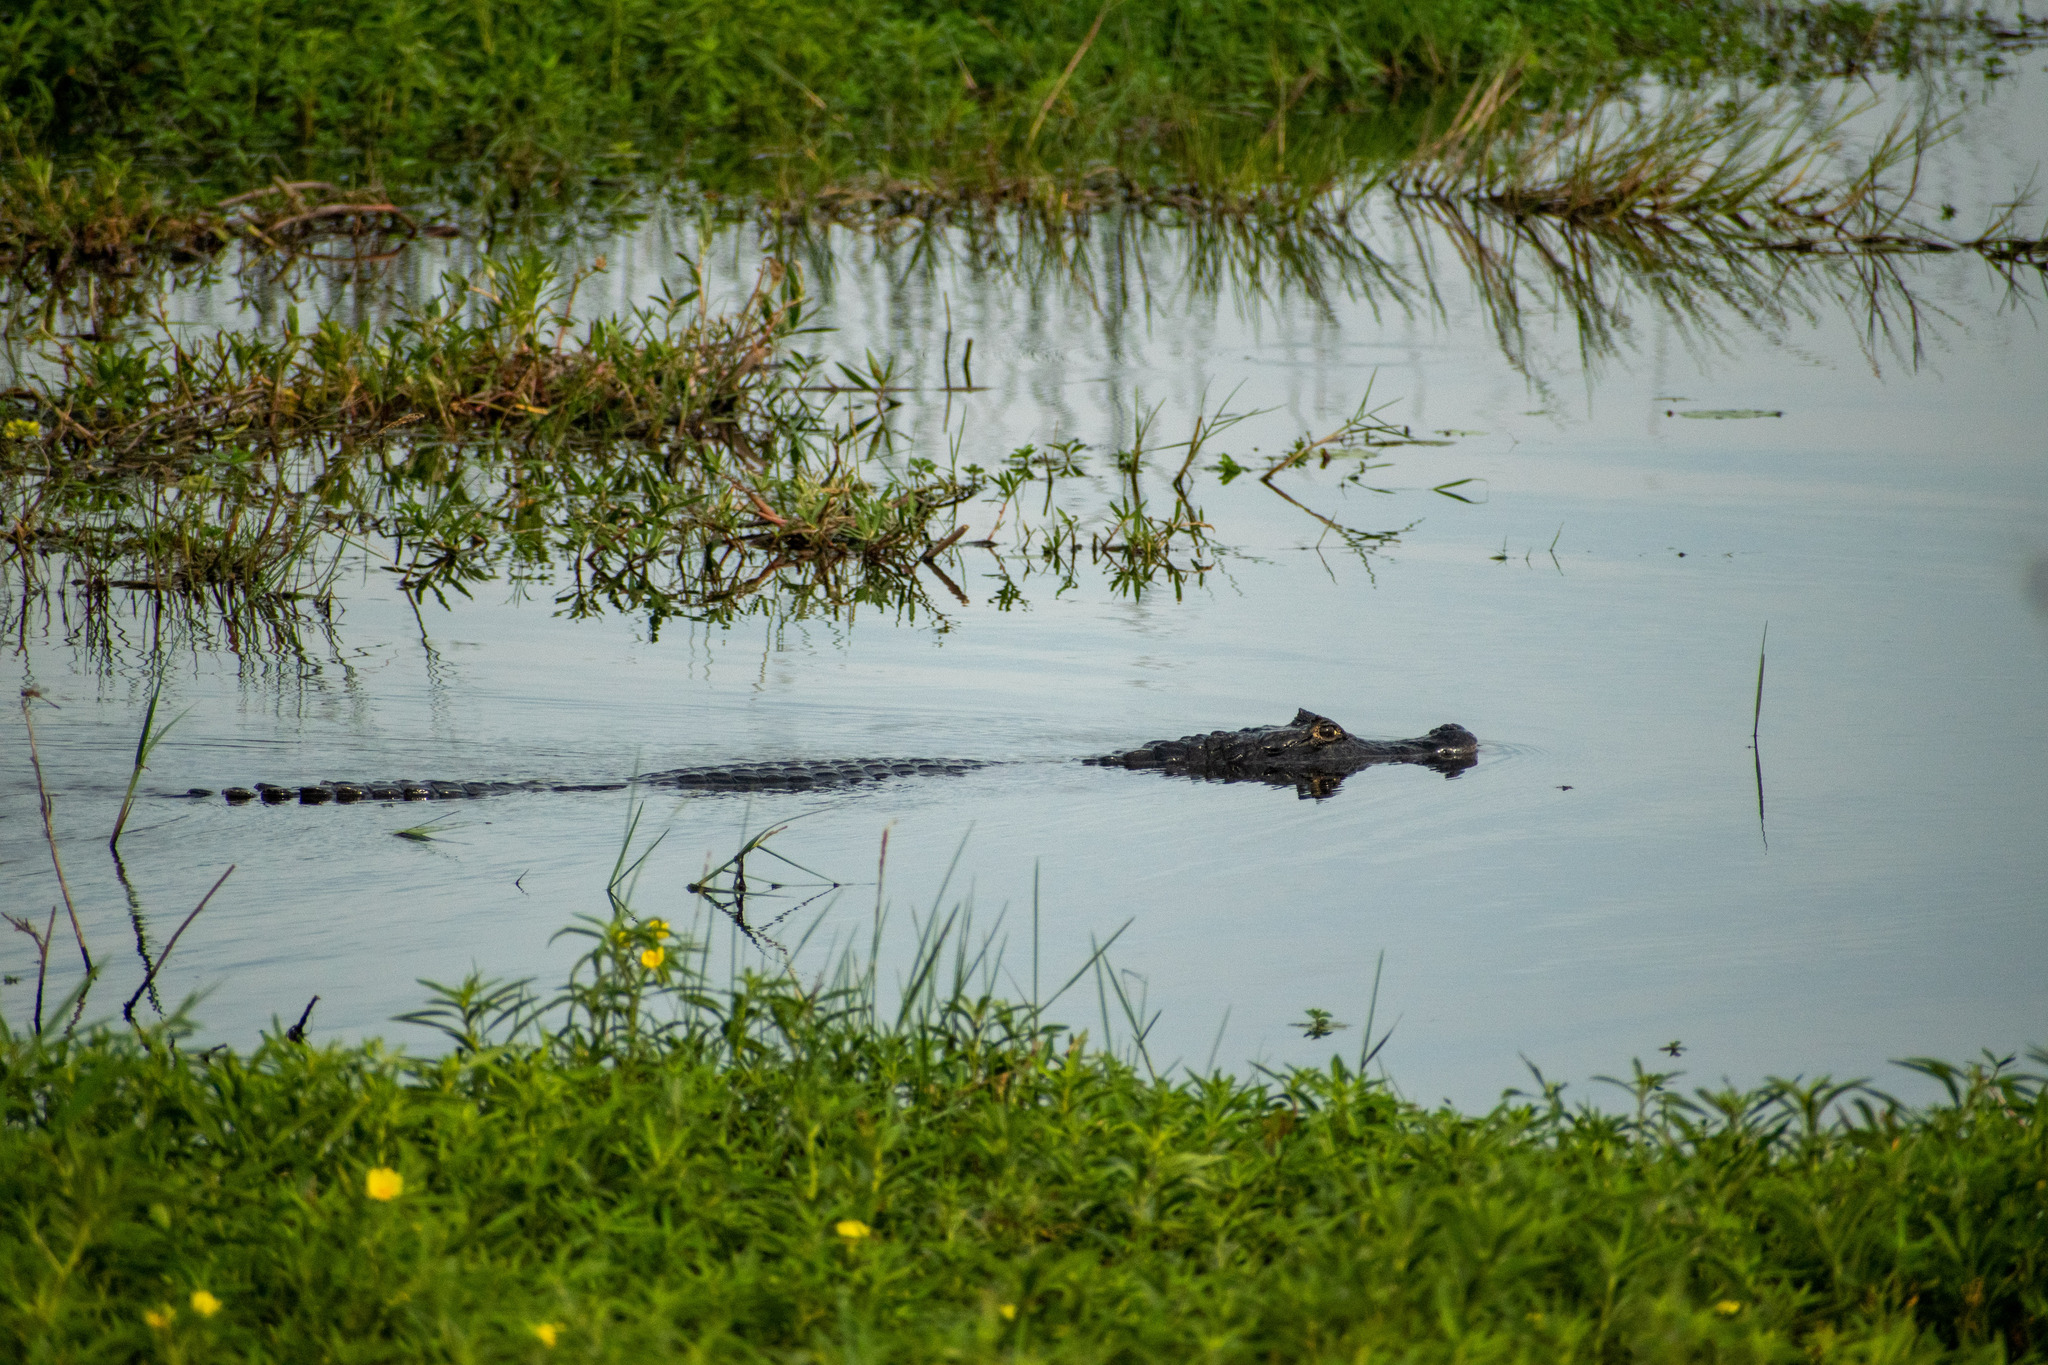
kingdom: Animalia
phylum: Chordata
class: Crocodylia
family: Alligatoridae
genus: Caiman
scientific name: Caiman yacare
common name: Yacare caiman
